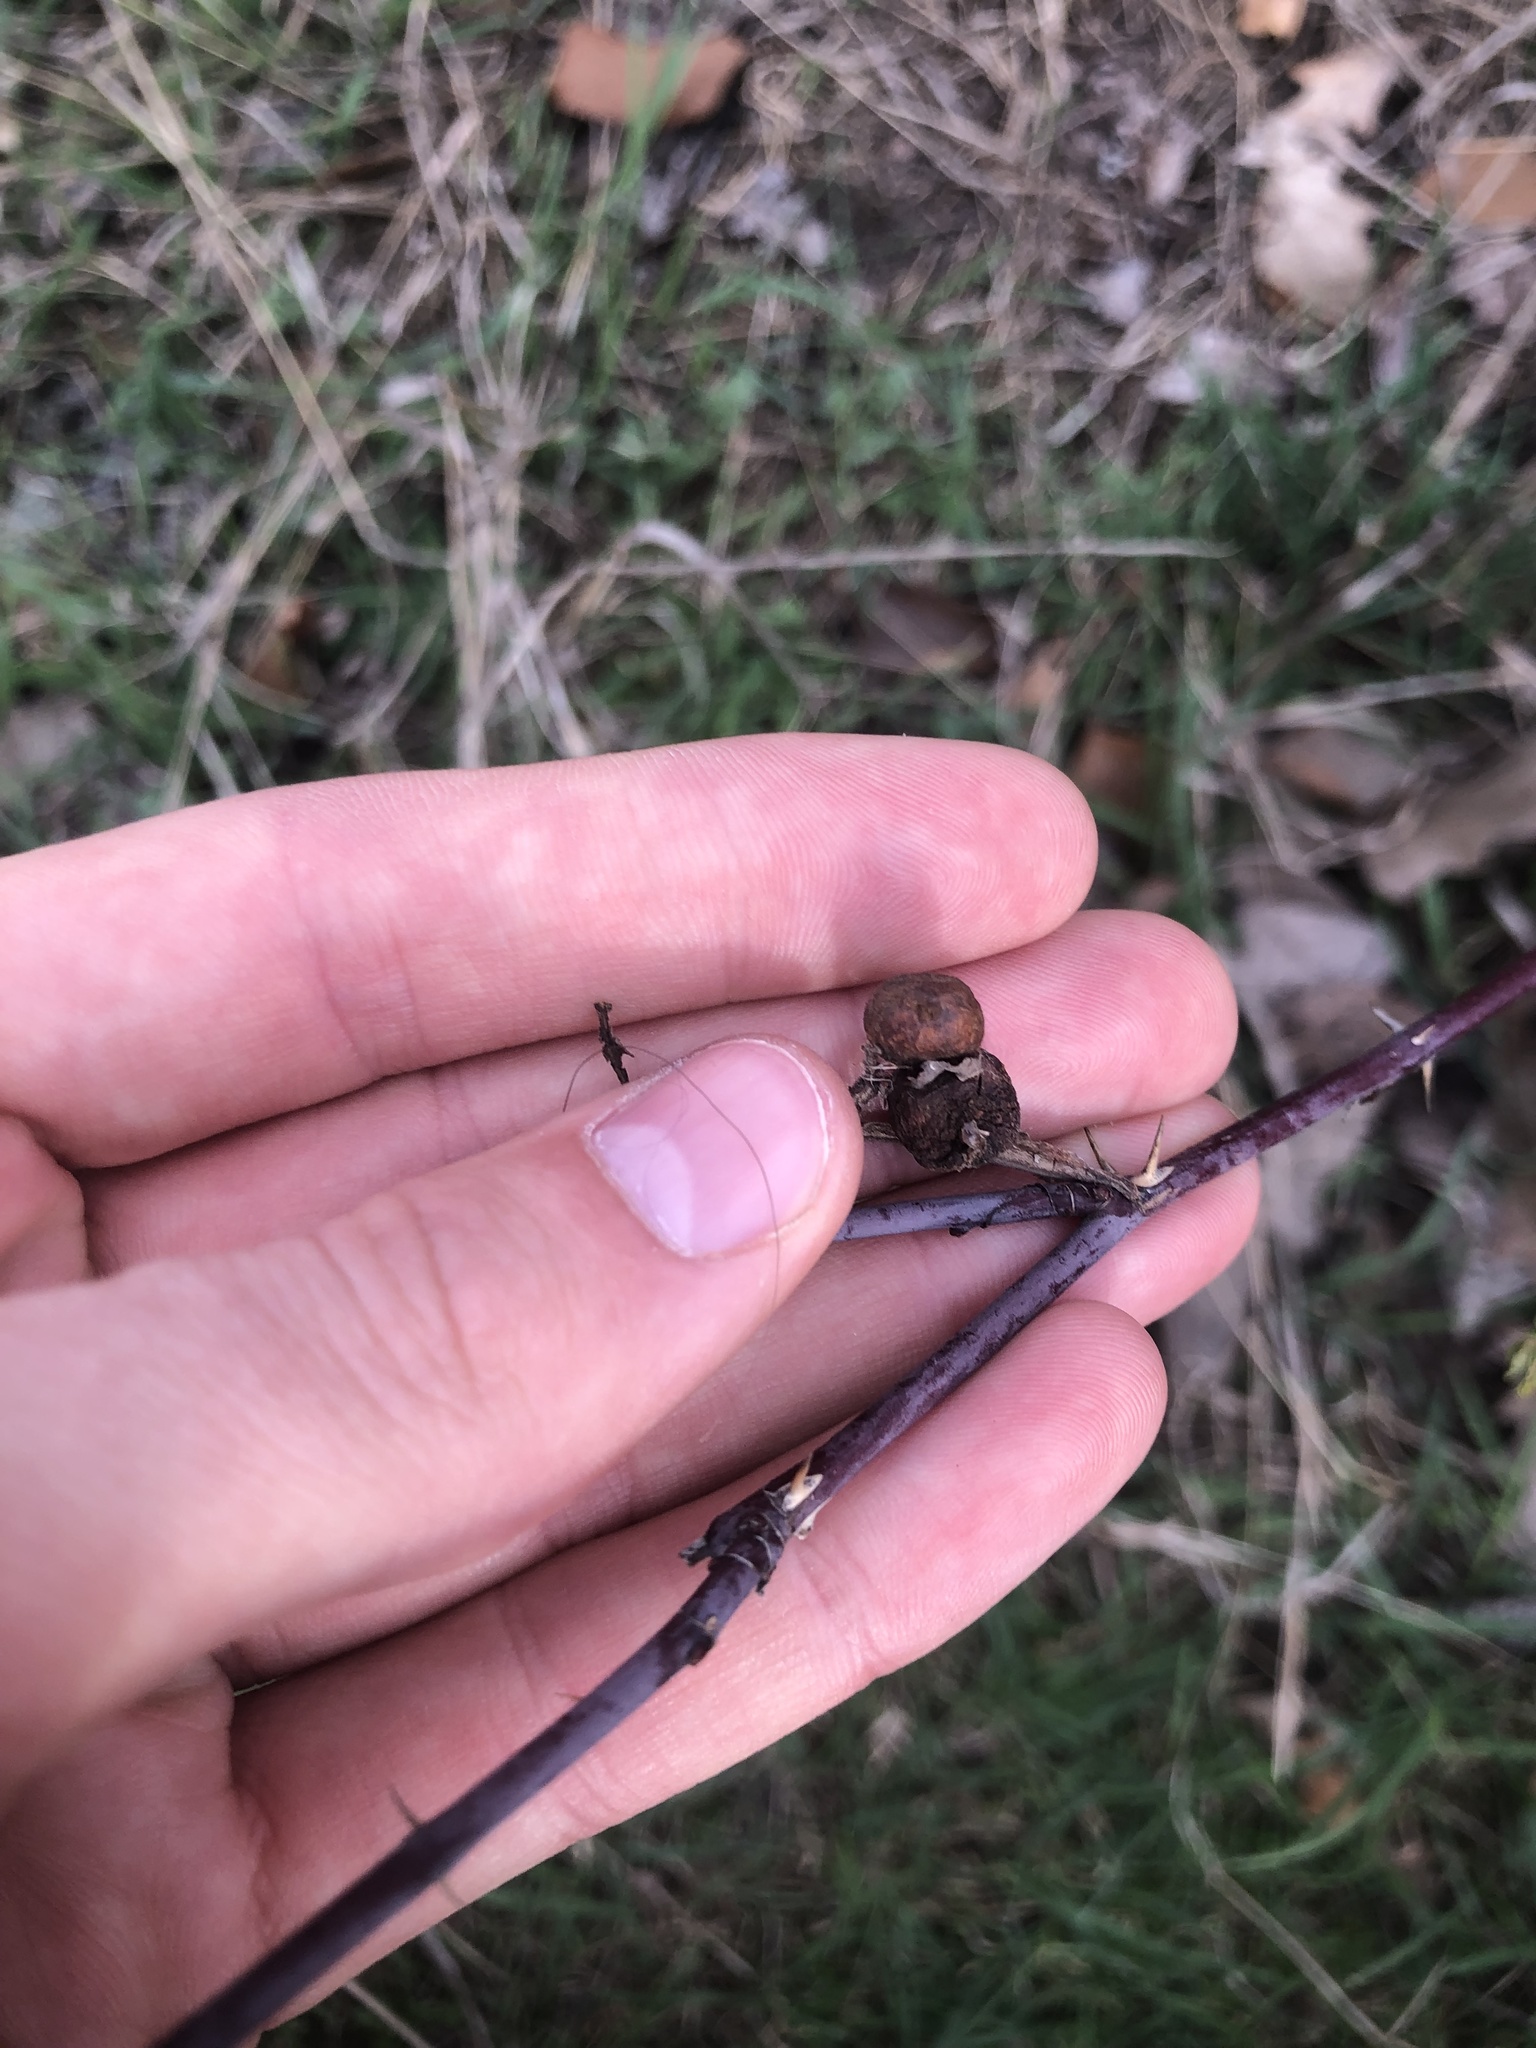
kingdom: Animalia
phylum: Arthropoda
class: Insecta
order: Hymenoptera
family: Cynipidae
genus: Diplolepis
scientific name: Diplolepis variabilis
